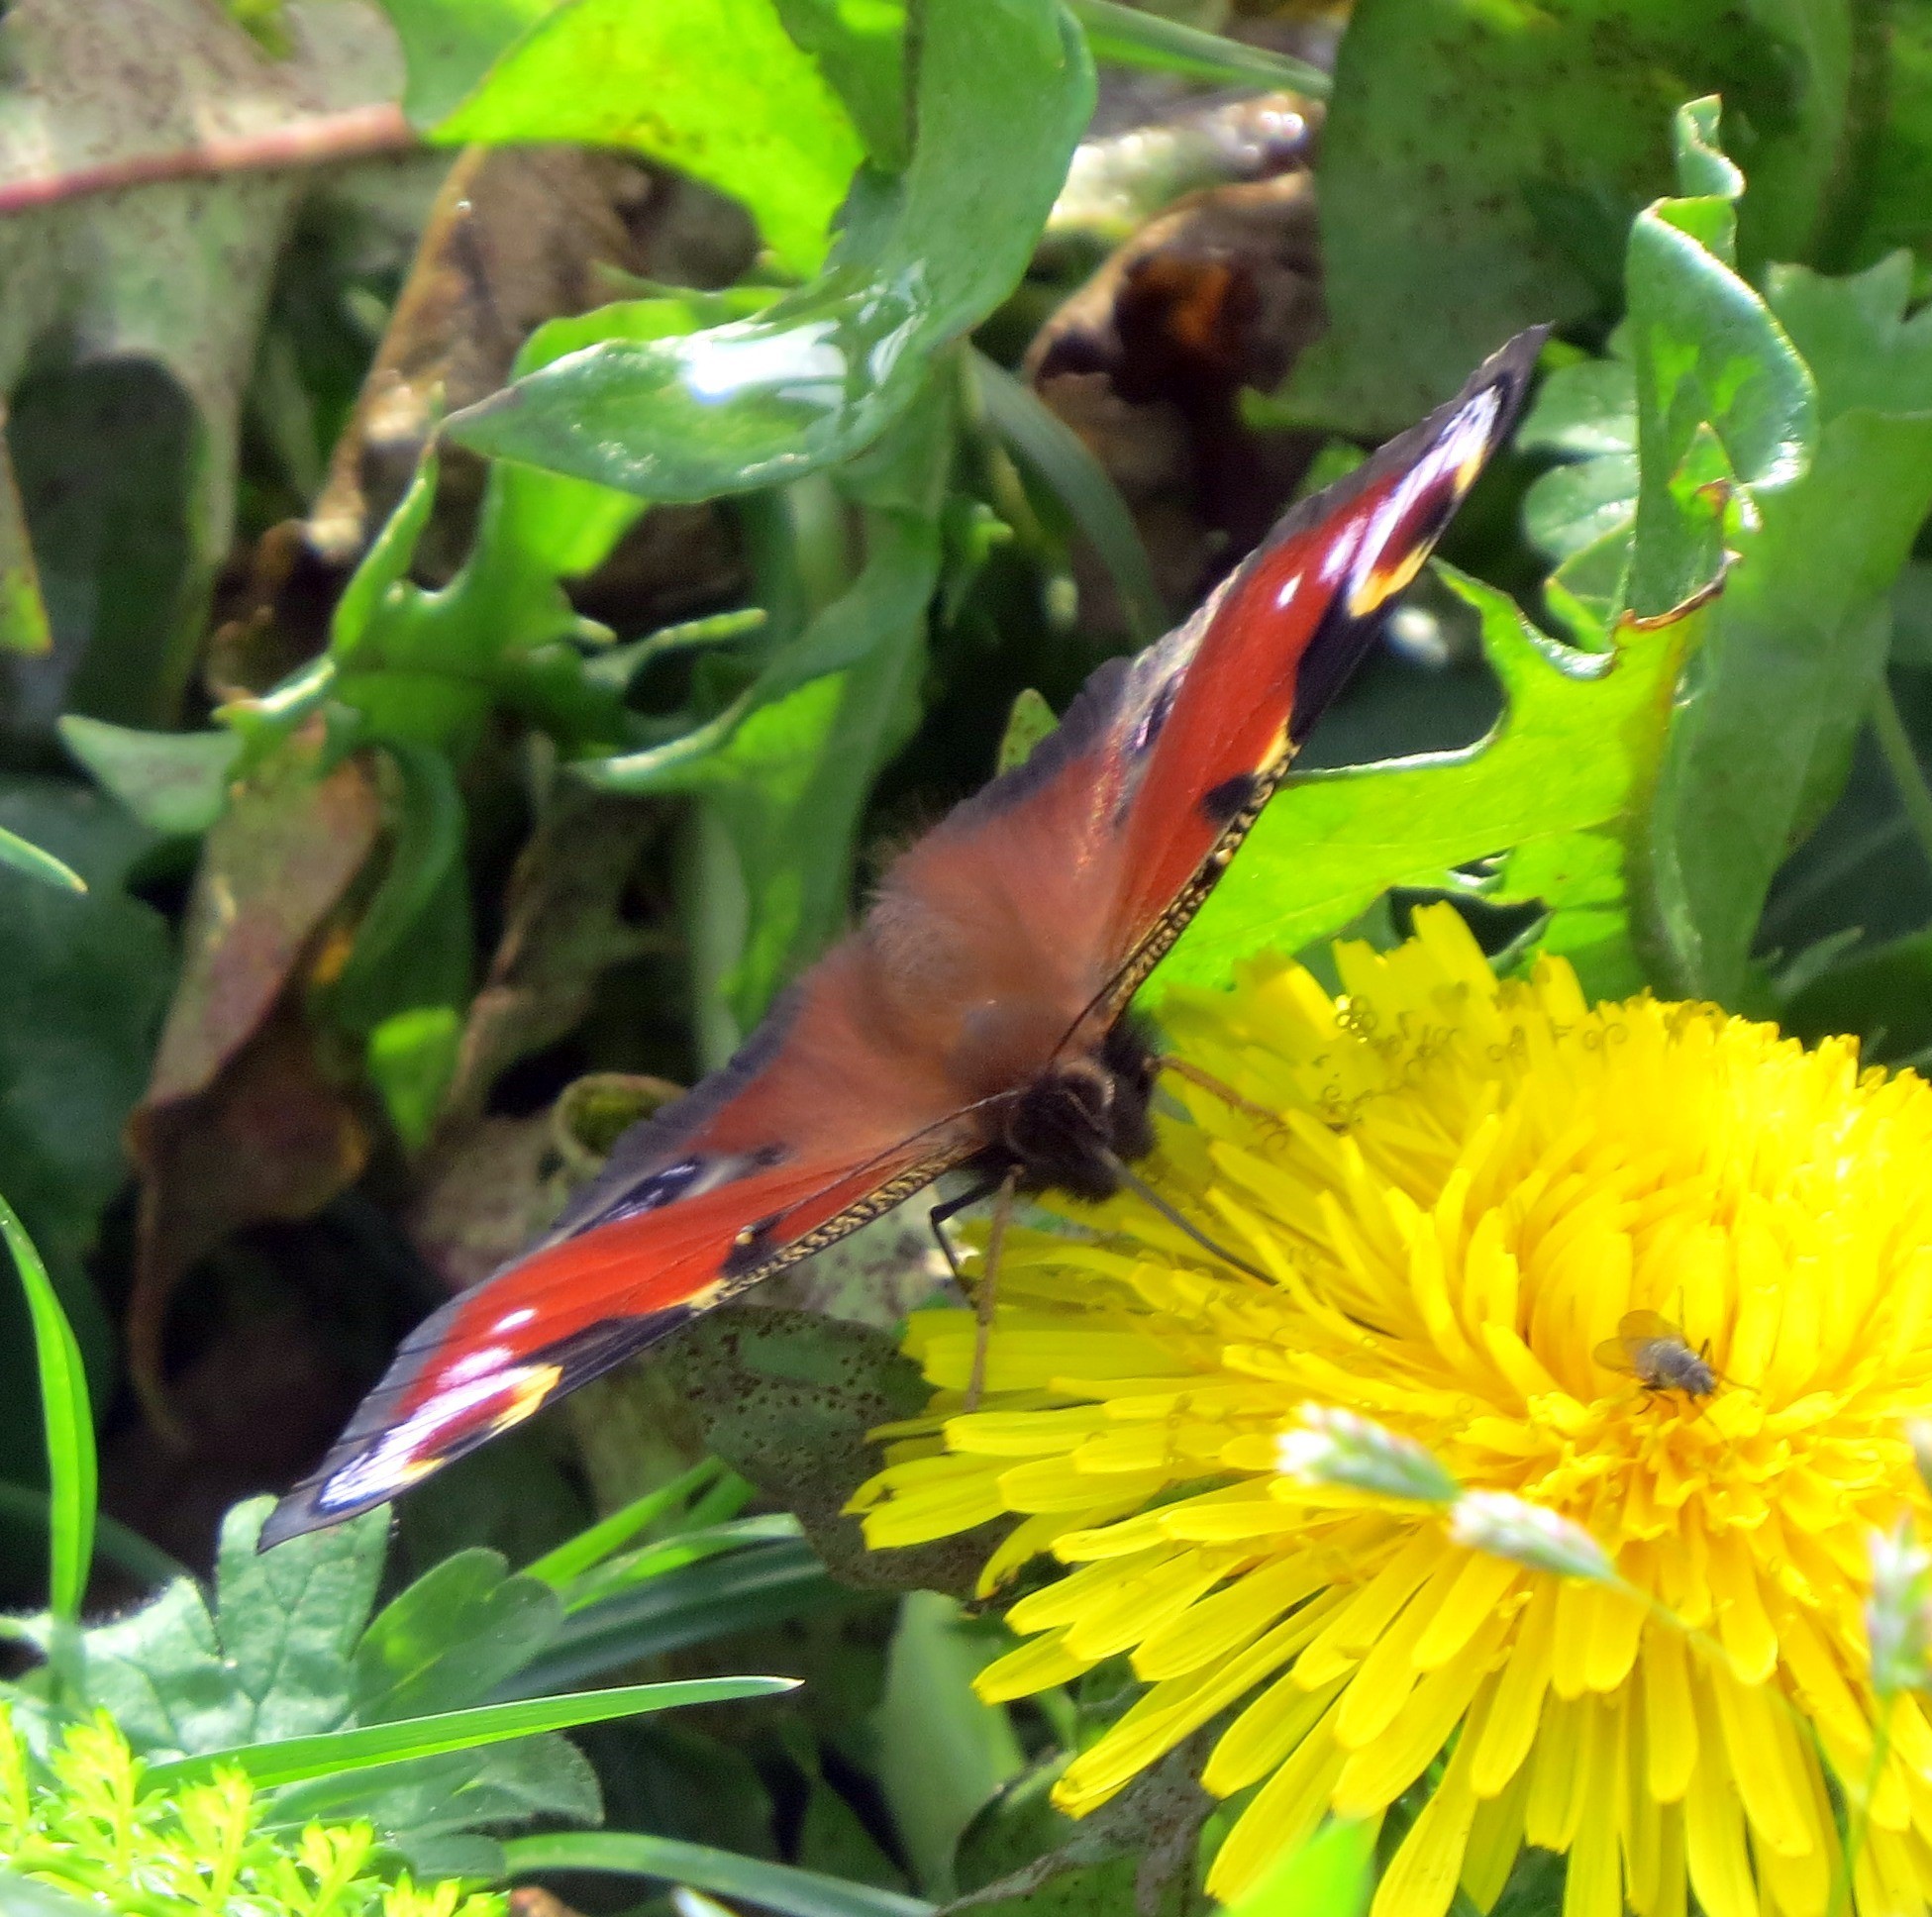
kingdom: Animalia
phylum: Arthropoda
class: Insecta
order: Lepidoptera
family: Nymphalidae
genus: Aglais
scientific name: Aglais io
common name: Peacock
